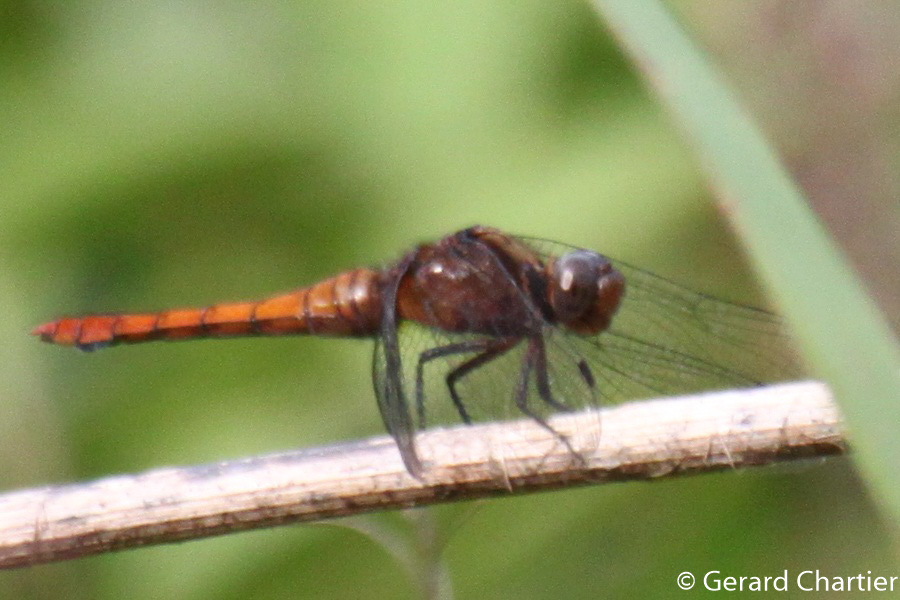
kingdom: Animalia
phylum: Arthropoda
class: Insecta
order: Odonata
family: Libellulidae
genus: Orthetrum
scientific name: Orthetrum chrysis
